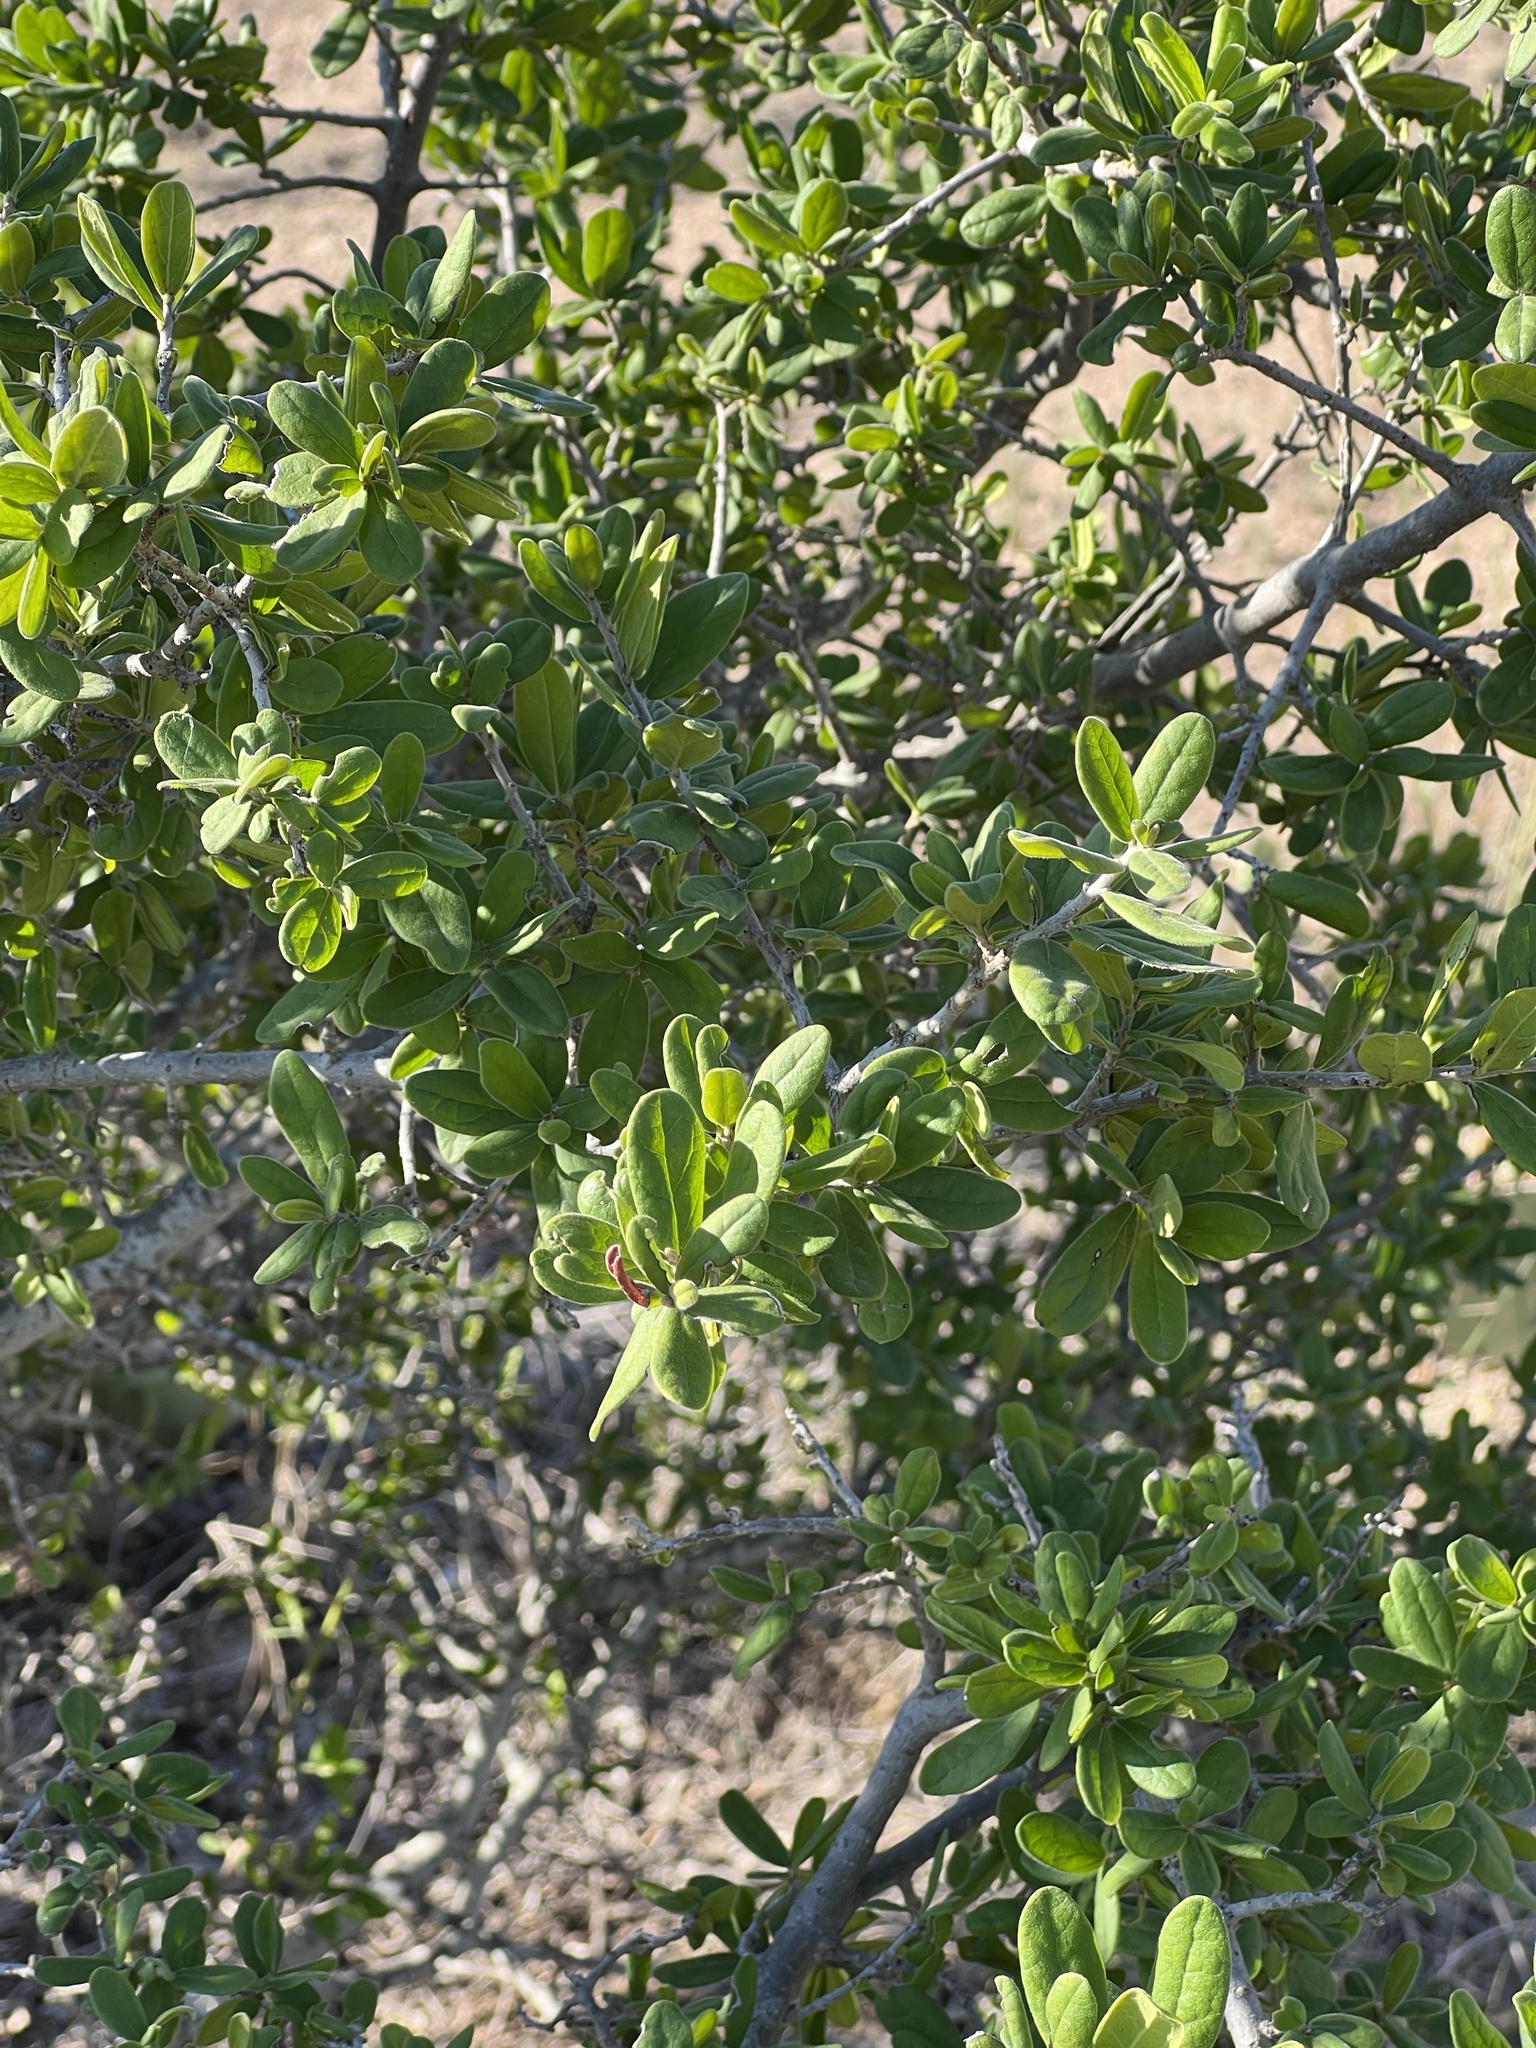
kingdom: Plantae
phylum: Tracheophyta
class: Magnoliopsida
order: Ericales
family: Ebenaceae
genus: Diospyros
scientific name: Diospyros texana
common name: Texas persimmon
